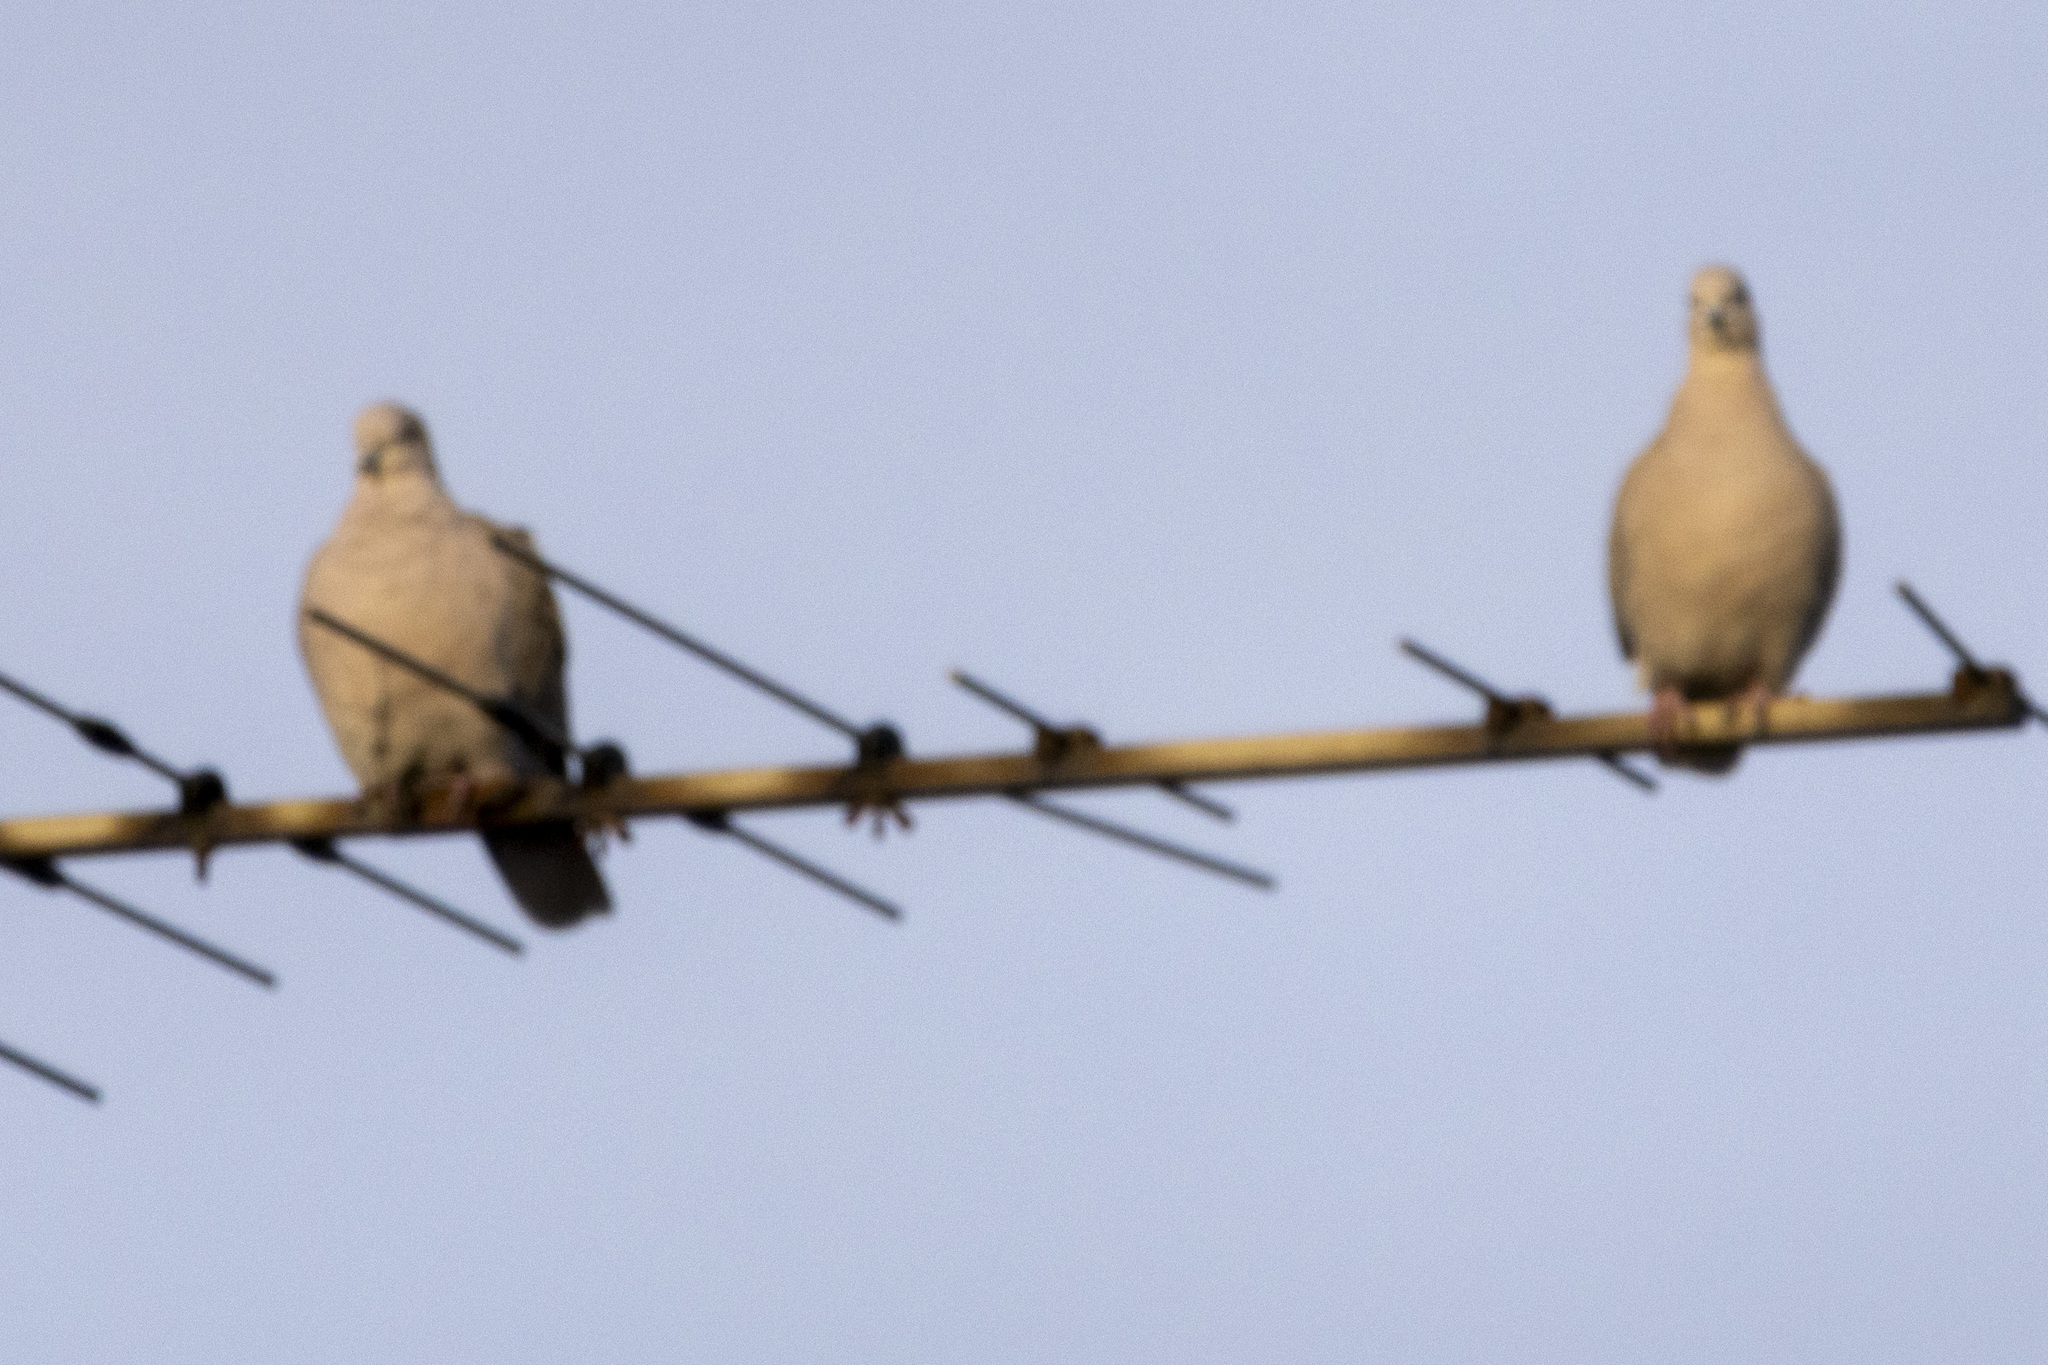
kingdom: Animalia
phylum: Chordata
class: Aves
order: Columbiformes
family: Columbidae
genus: Streptopelia
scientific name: Streptopelia decaocto
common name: Eurasian collared dove
